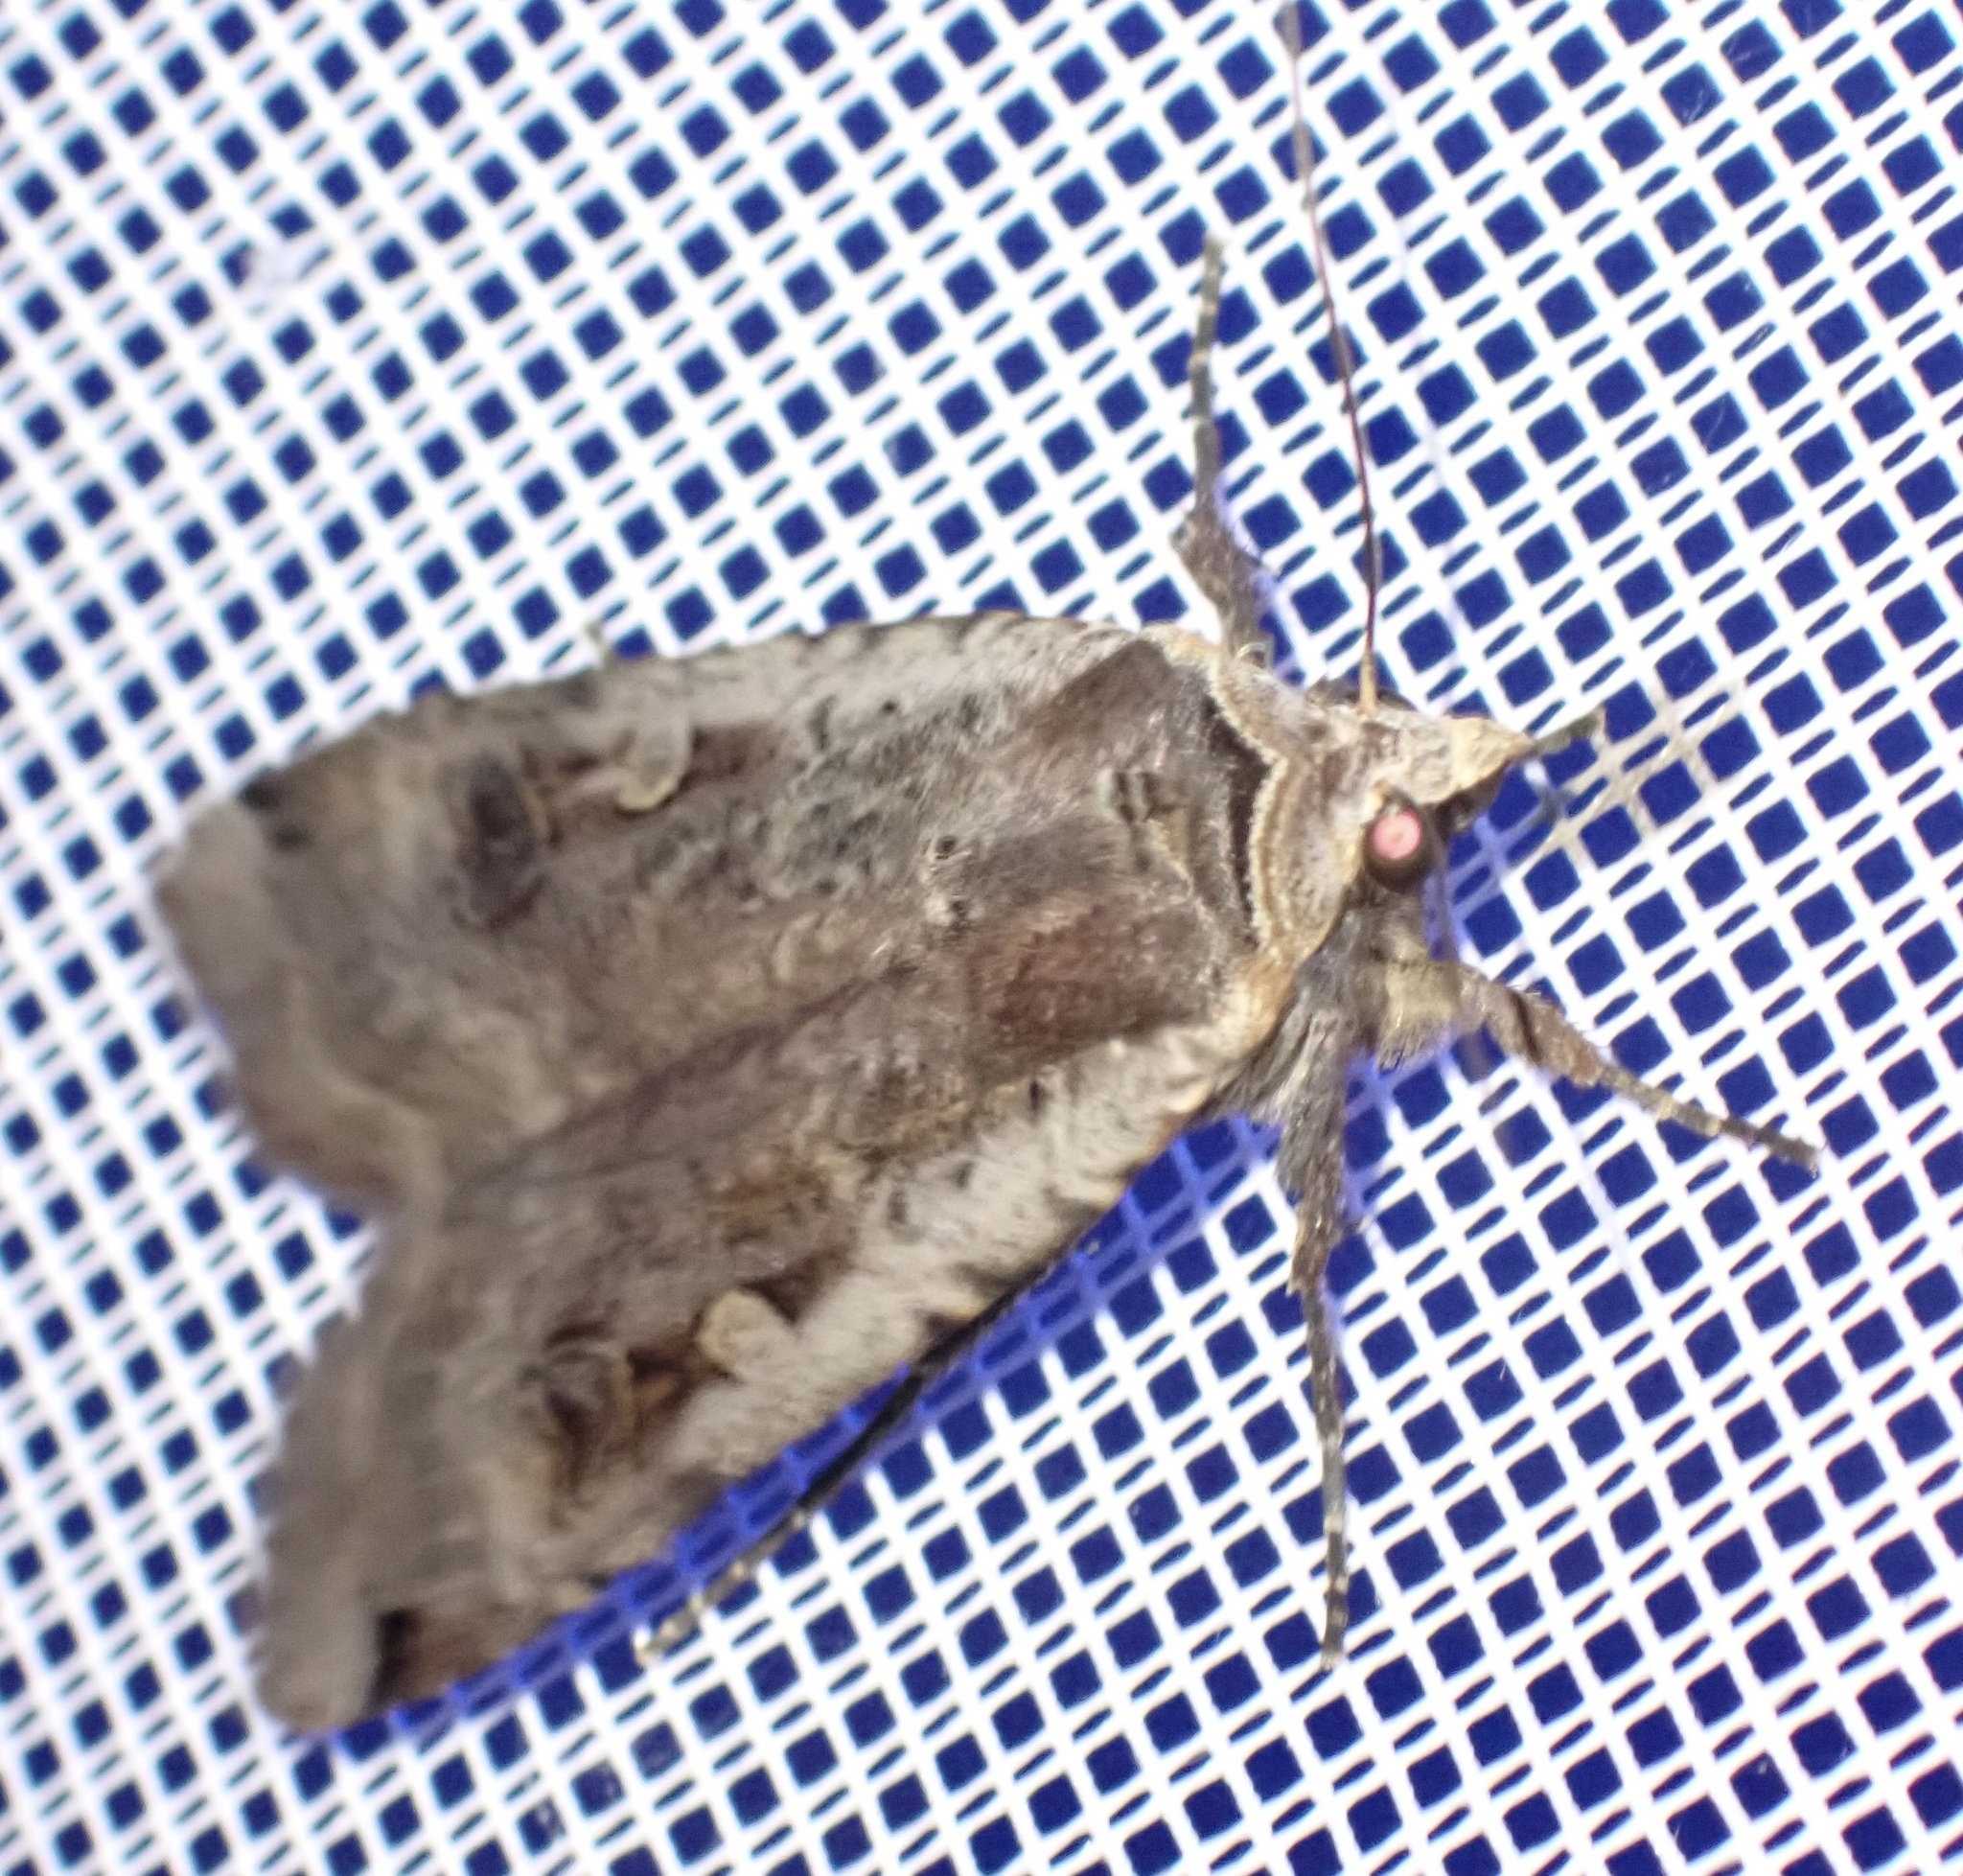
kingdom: Animalia
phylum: Arthropoda
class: Insecta
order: Lepidoptera
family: Noctuidae
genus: Noctua
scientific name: Noctua pronuba
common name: Large yellow underwing
